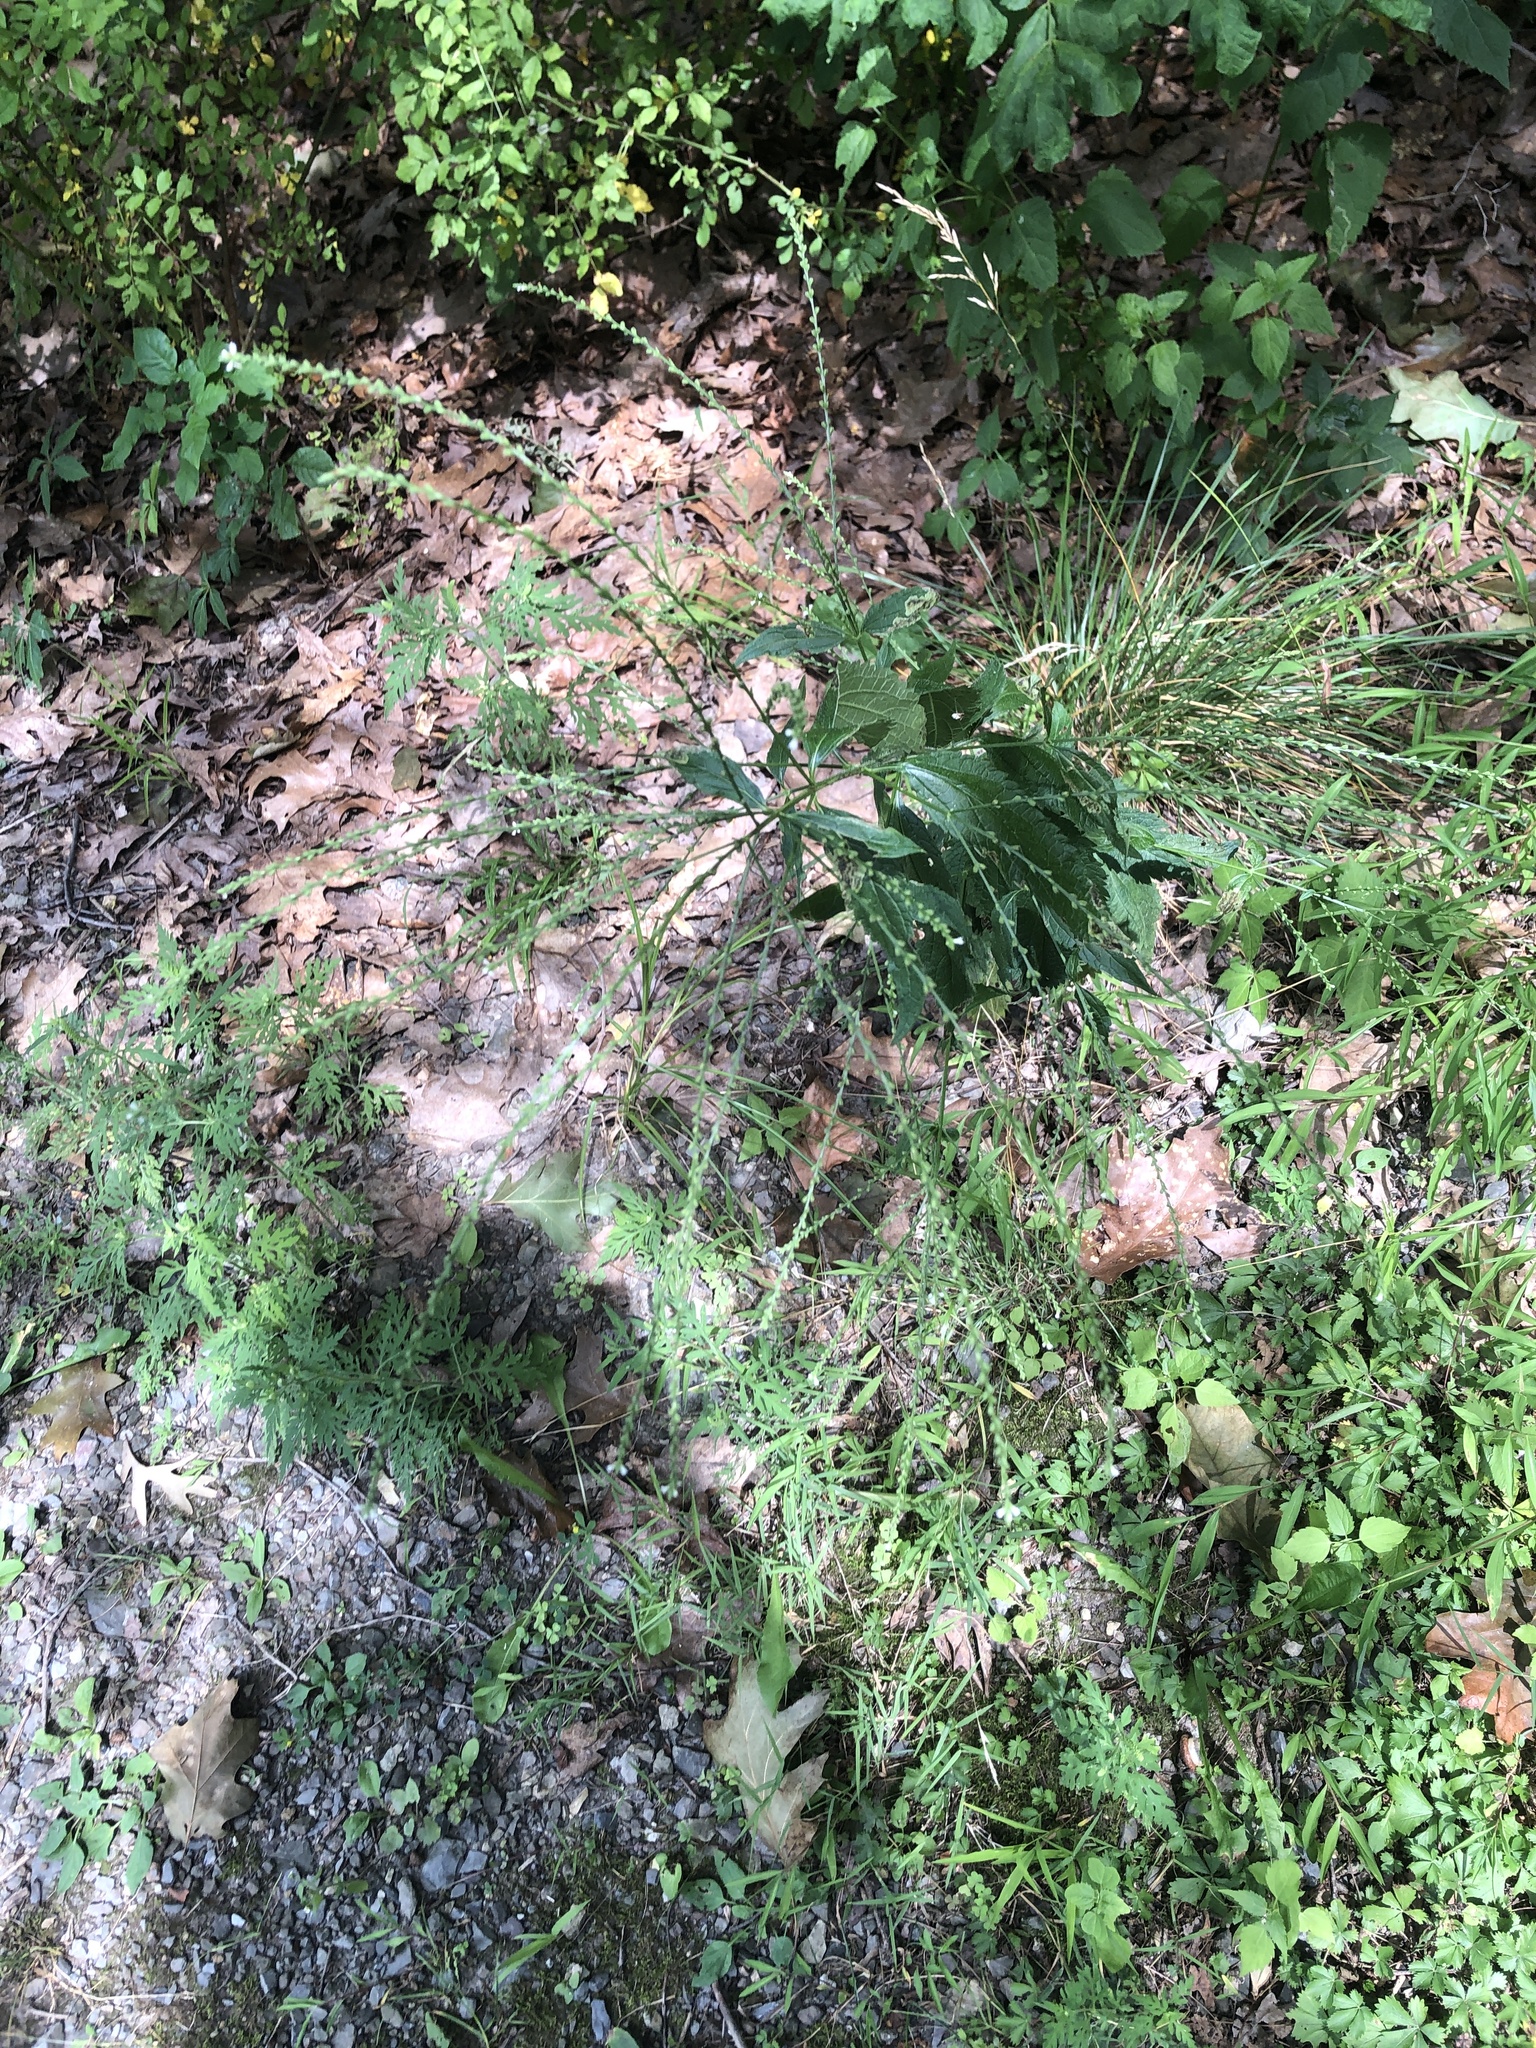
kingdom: Plantae
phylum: Tracheophyta
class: Magnoliopsida
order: Lamiales
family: Verbenaceae
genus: Verbena
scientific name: Verbena urticifolia
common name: Nettle-leaved vervain
